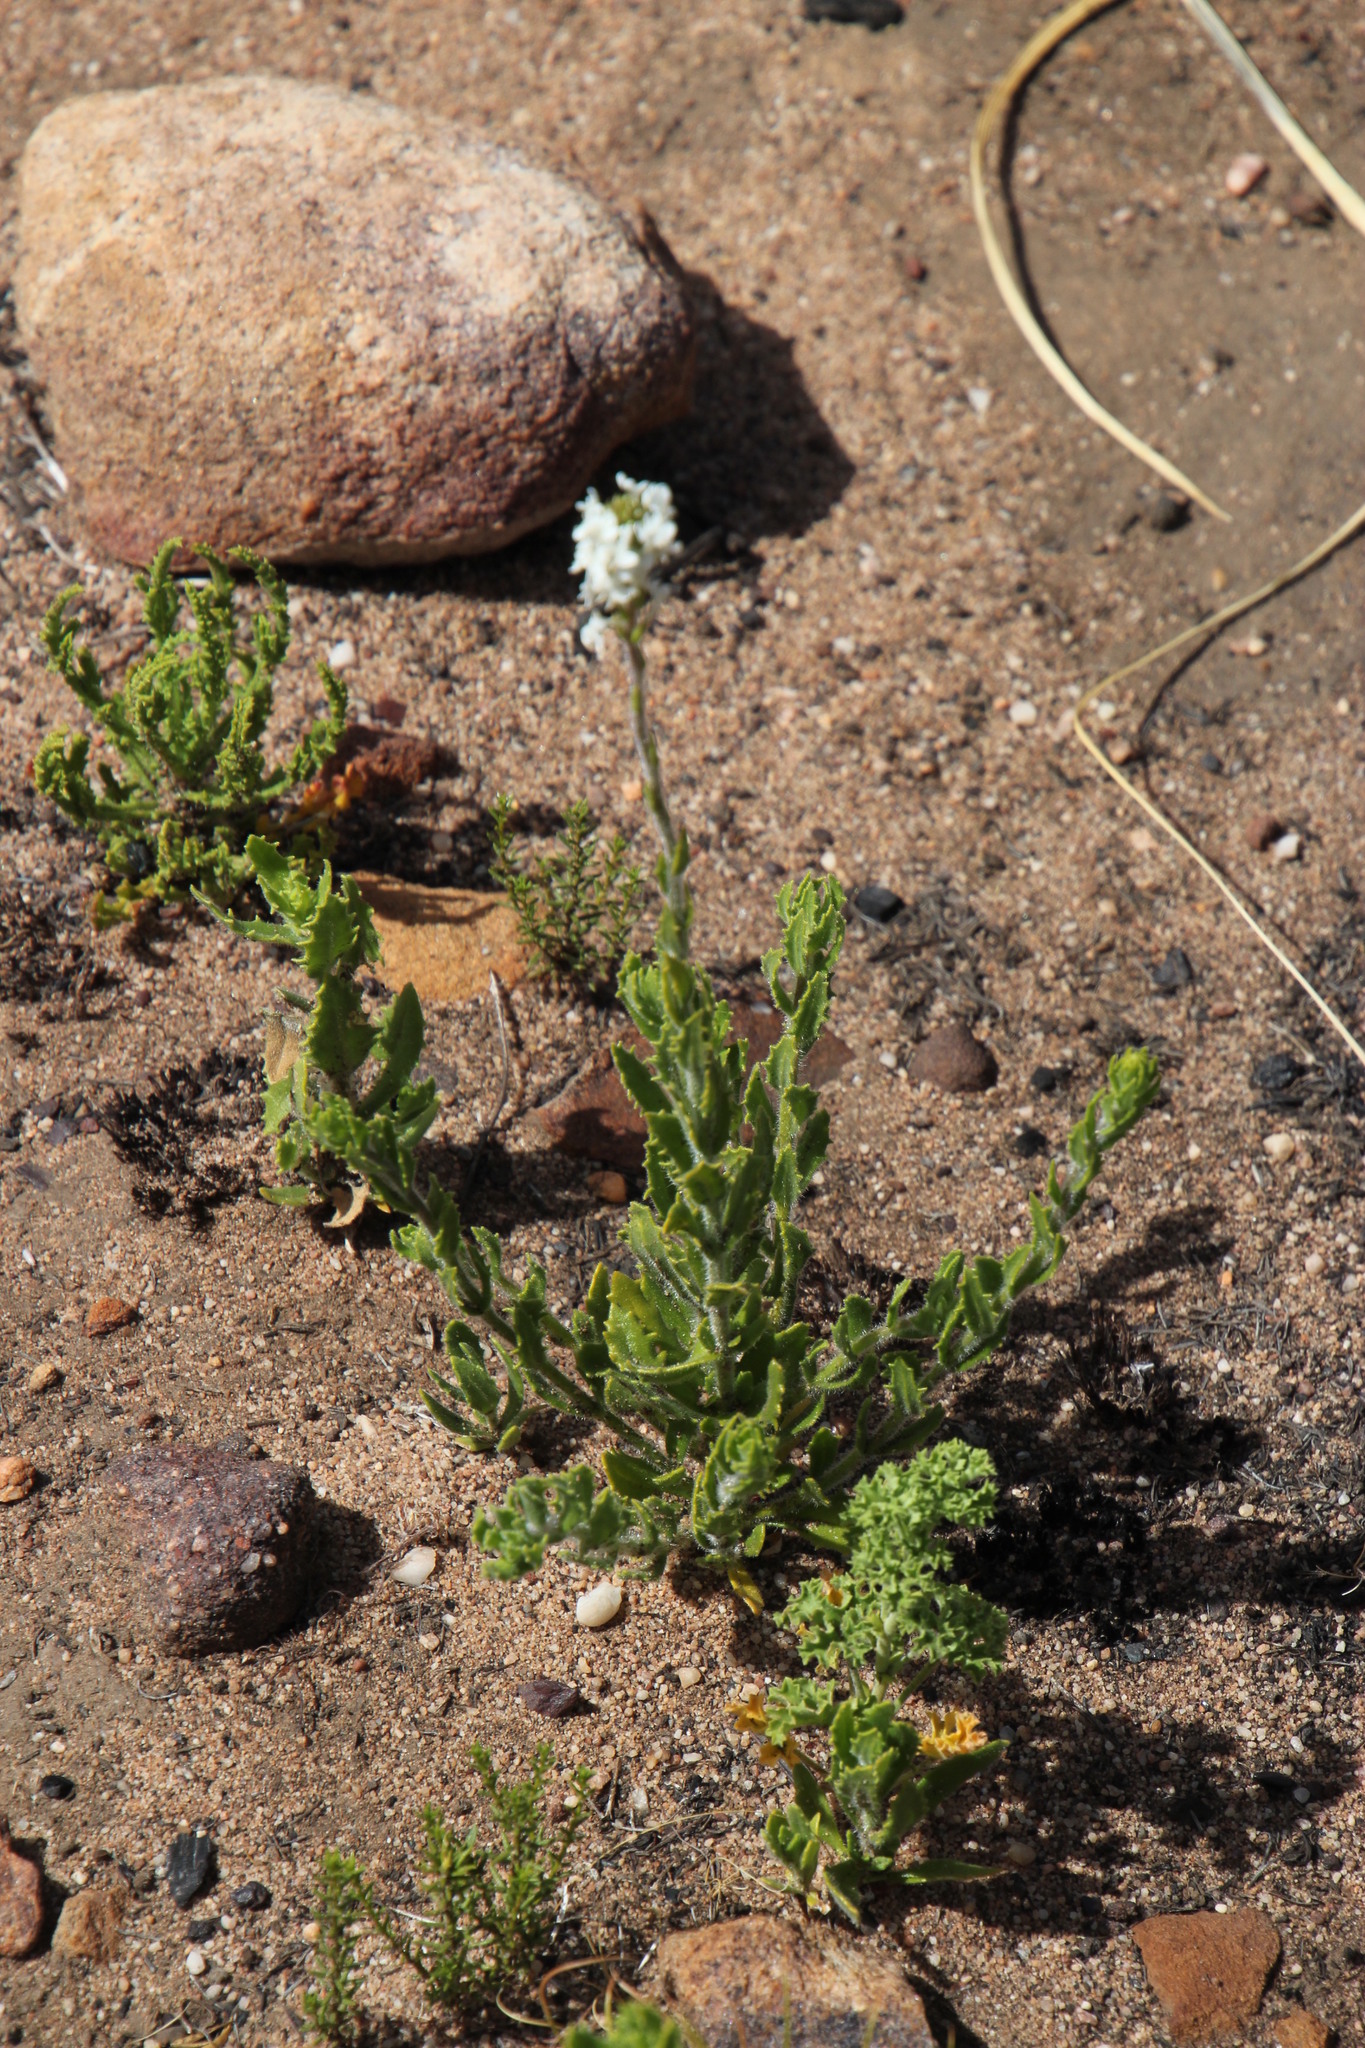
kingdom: Plantae
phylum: Tracheophyta
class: Magnoliopsida
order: Lamiales
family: Scrophulariaceae
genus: Hebenstretia
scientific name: Hebenstretia lanceolata
